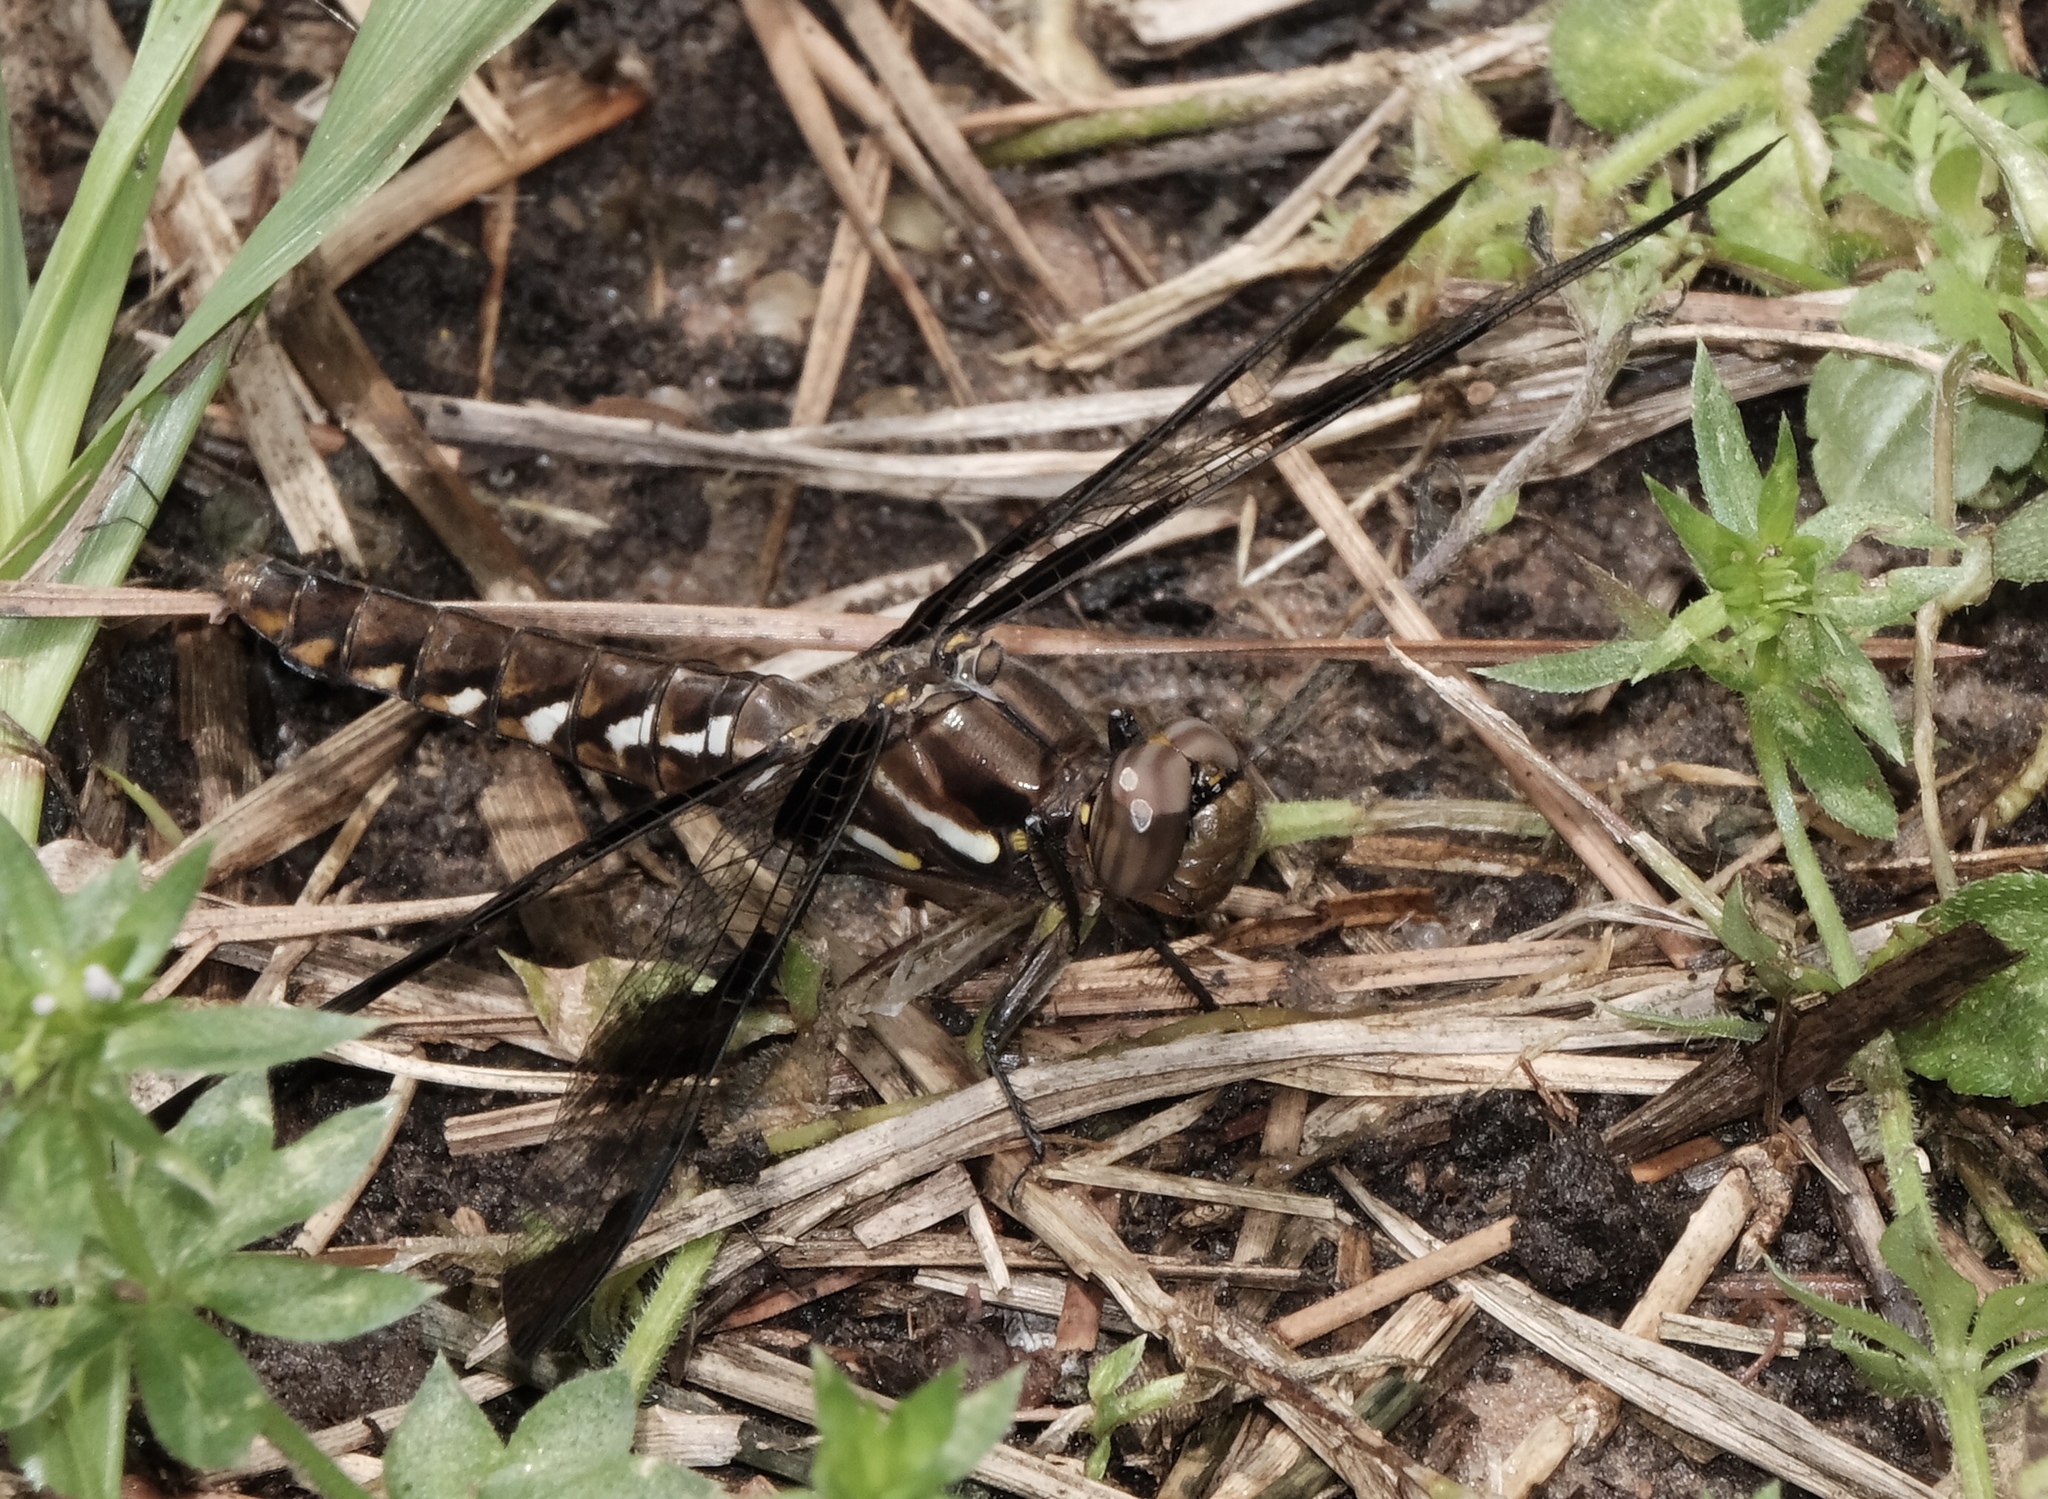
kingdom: Animalia
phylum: Arthropoda
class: Insecta
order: Odonata
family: Libellulidae
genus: Plathemis
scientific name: Plathemis lydia
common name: Common whitetail
